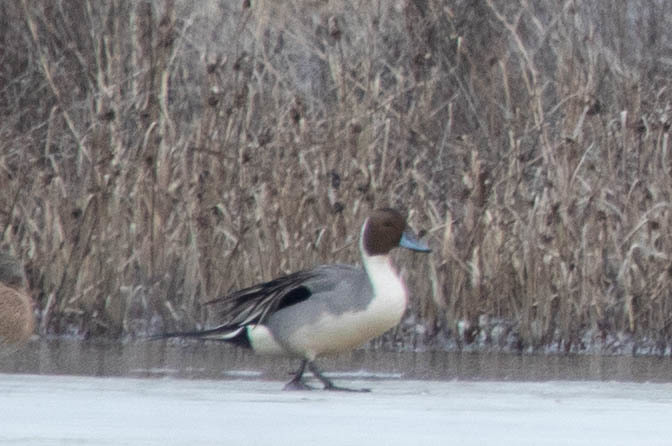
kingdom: Animalia
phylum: Chordata
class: Aves
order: Anseriformes
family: Anatidae
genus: Anas
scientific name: Anas acuta
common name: Northern pintail
